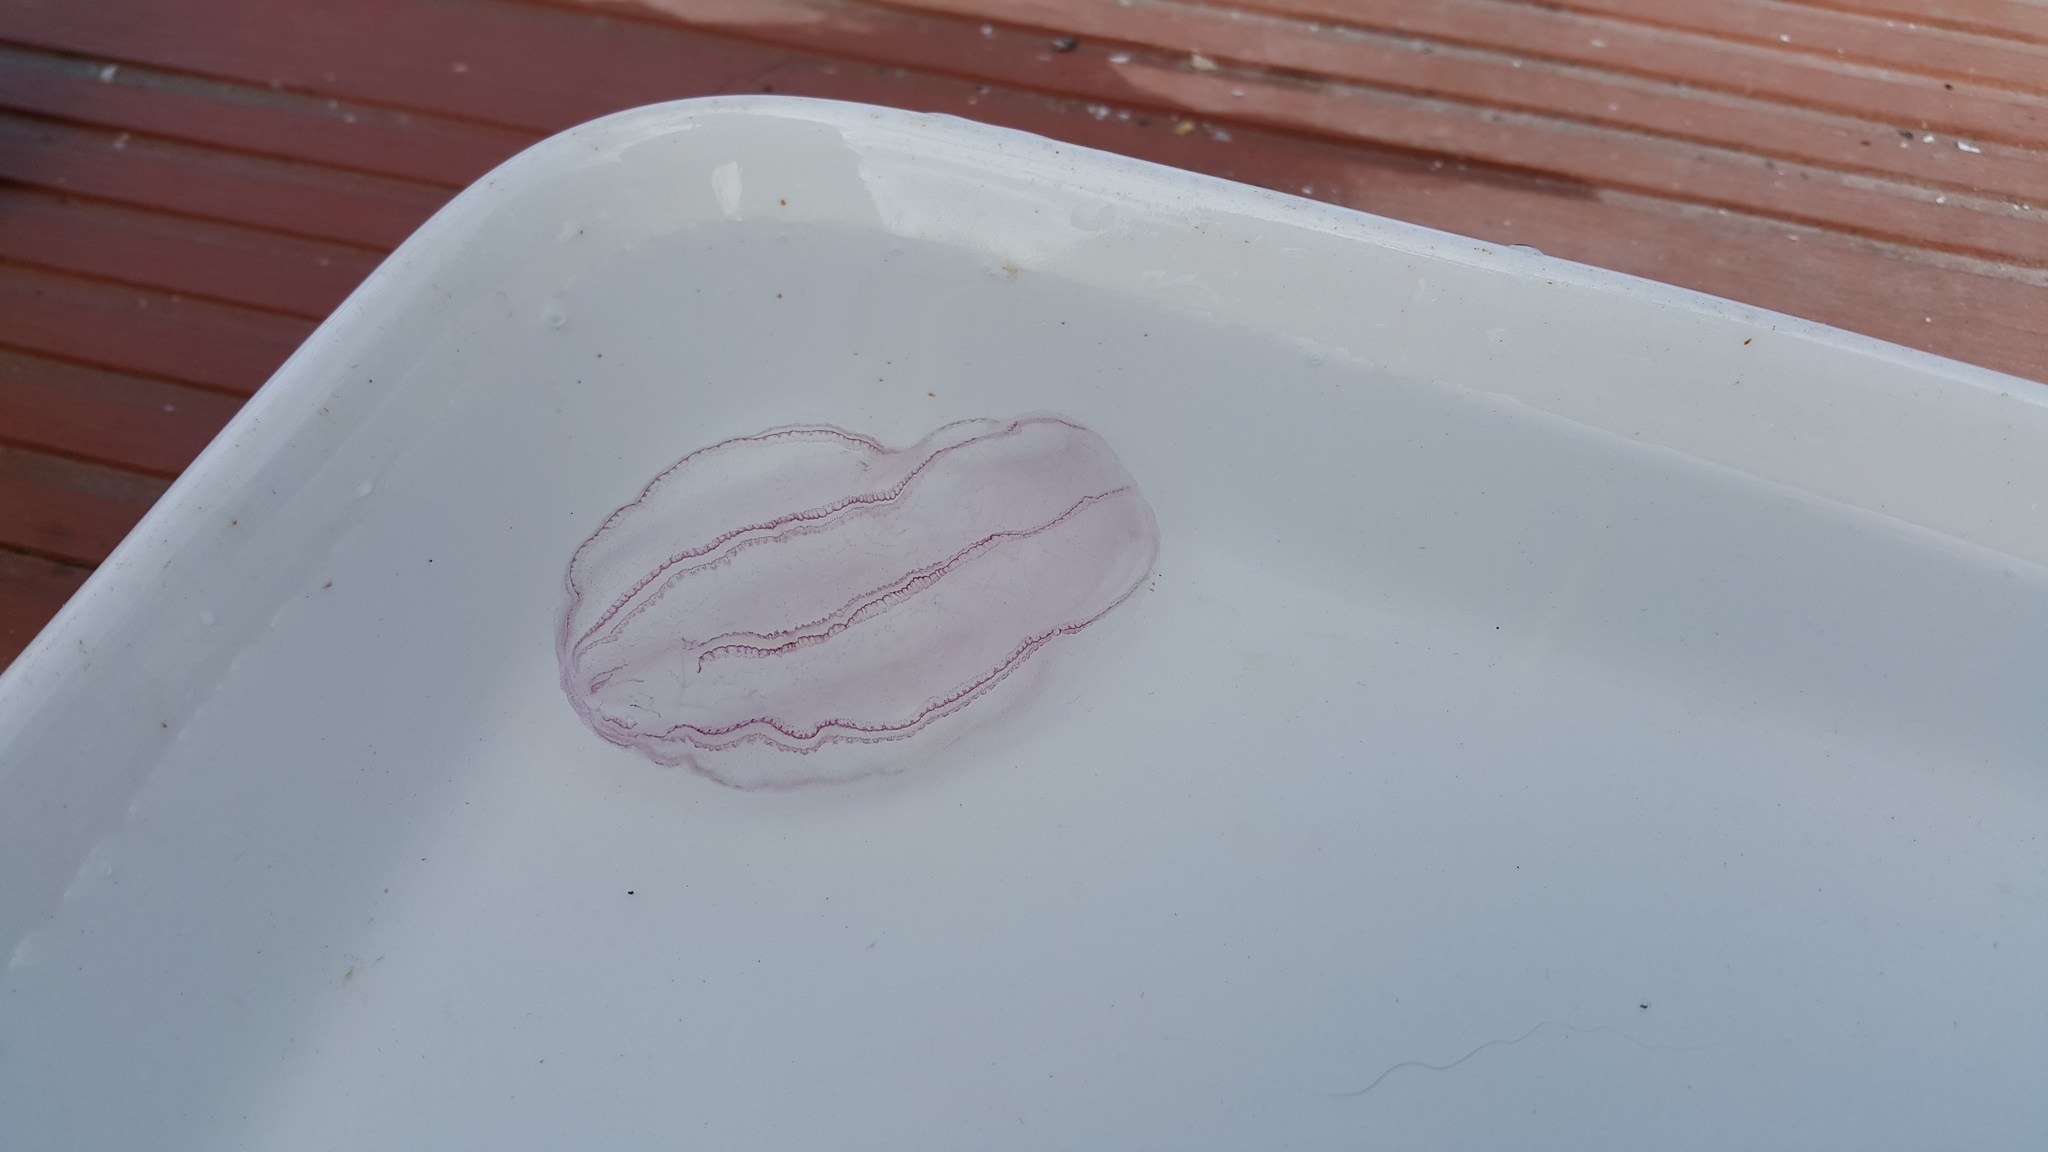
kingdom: Animalia
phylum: Ctenophora
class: Nuda
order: Beroida
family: Beroidae
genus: Beroe
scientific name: Beroe cucumis
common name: Beroe
